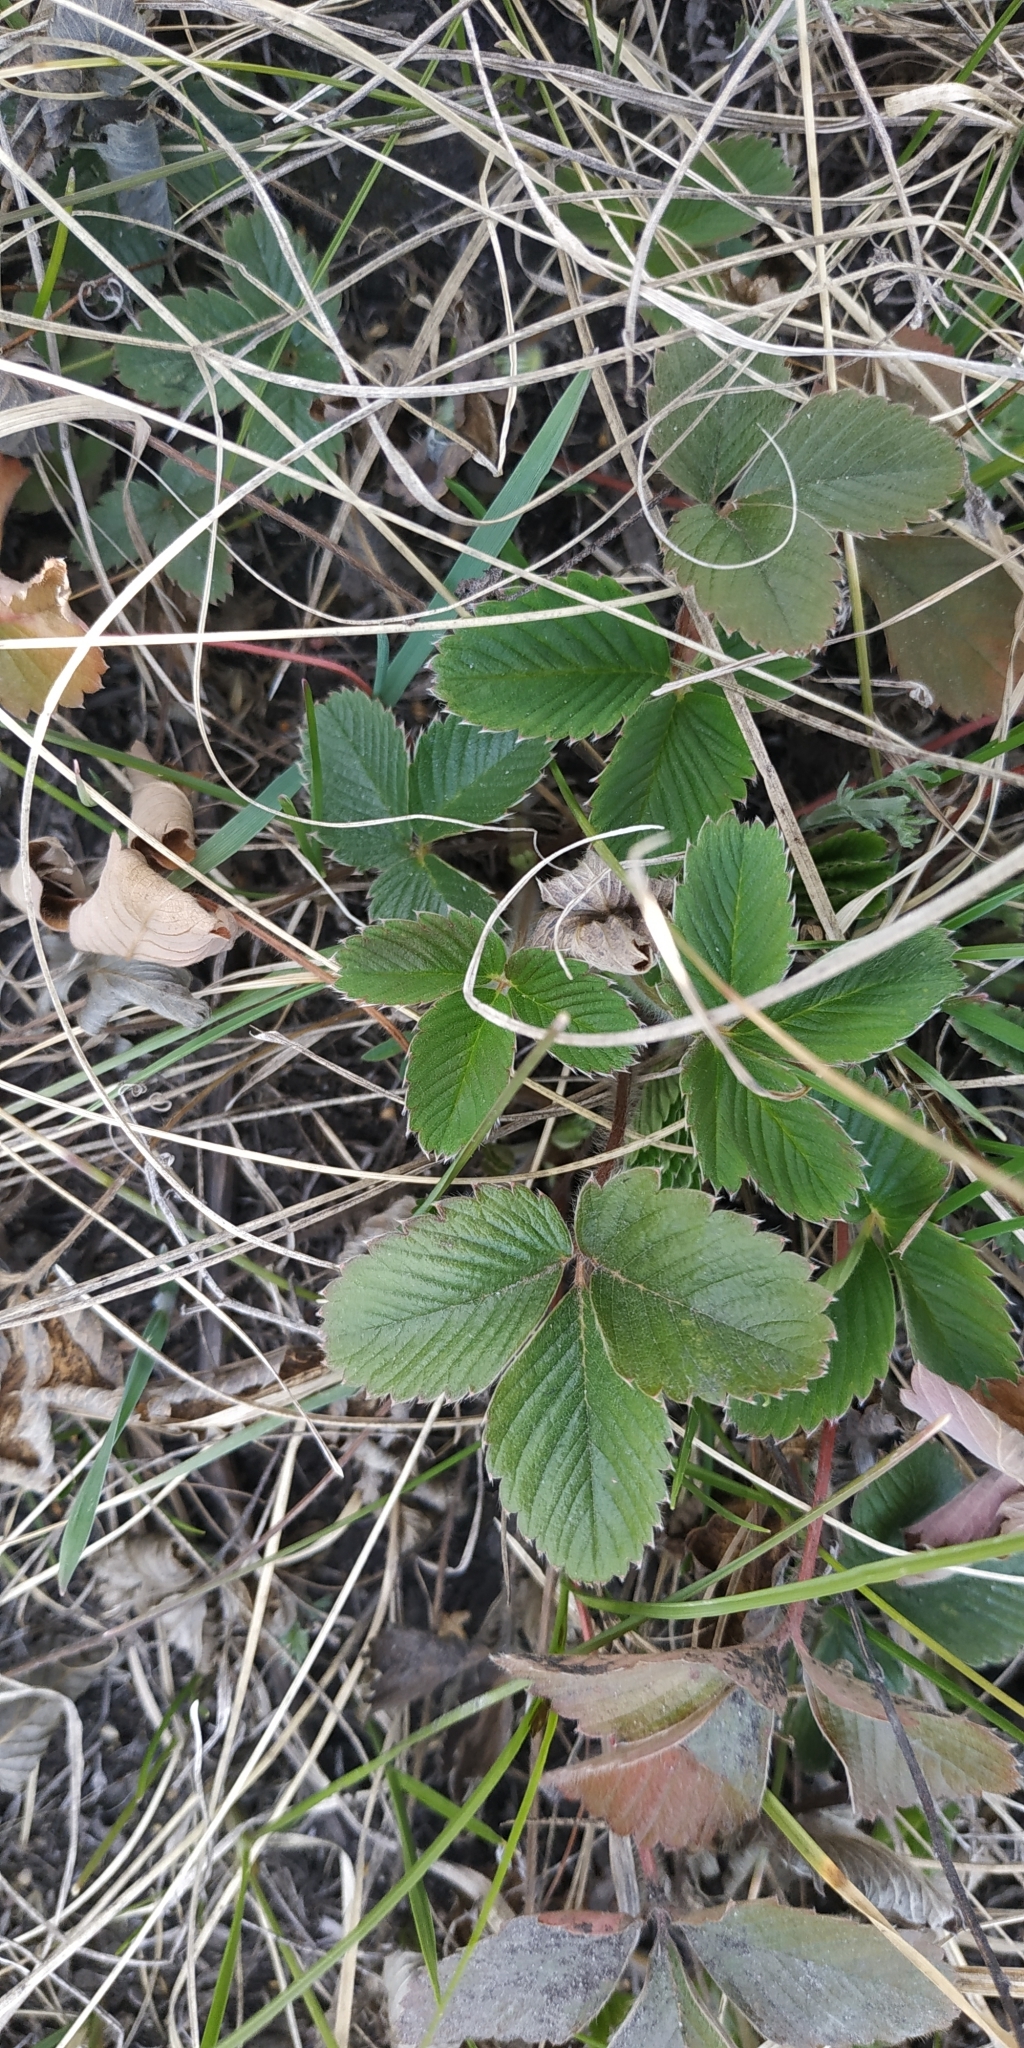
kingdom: Plantae
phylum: Tracheophyta
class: Magnoliopsida
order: Rosales
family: Rosaceae
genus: Fragaria
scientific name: Fragaria viridis
